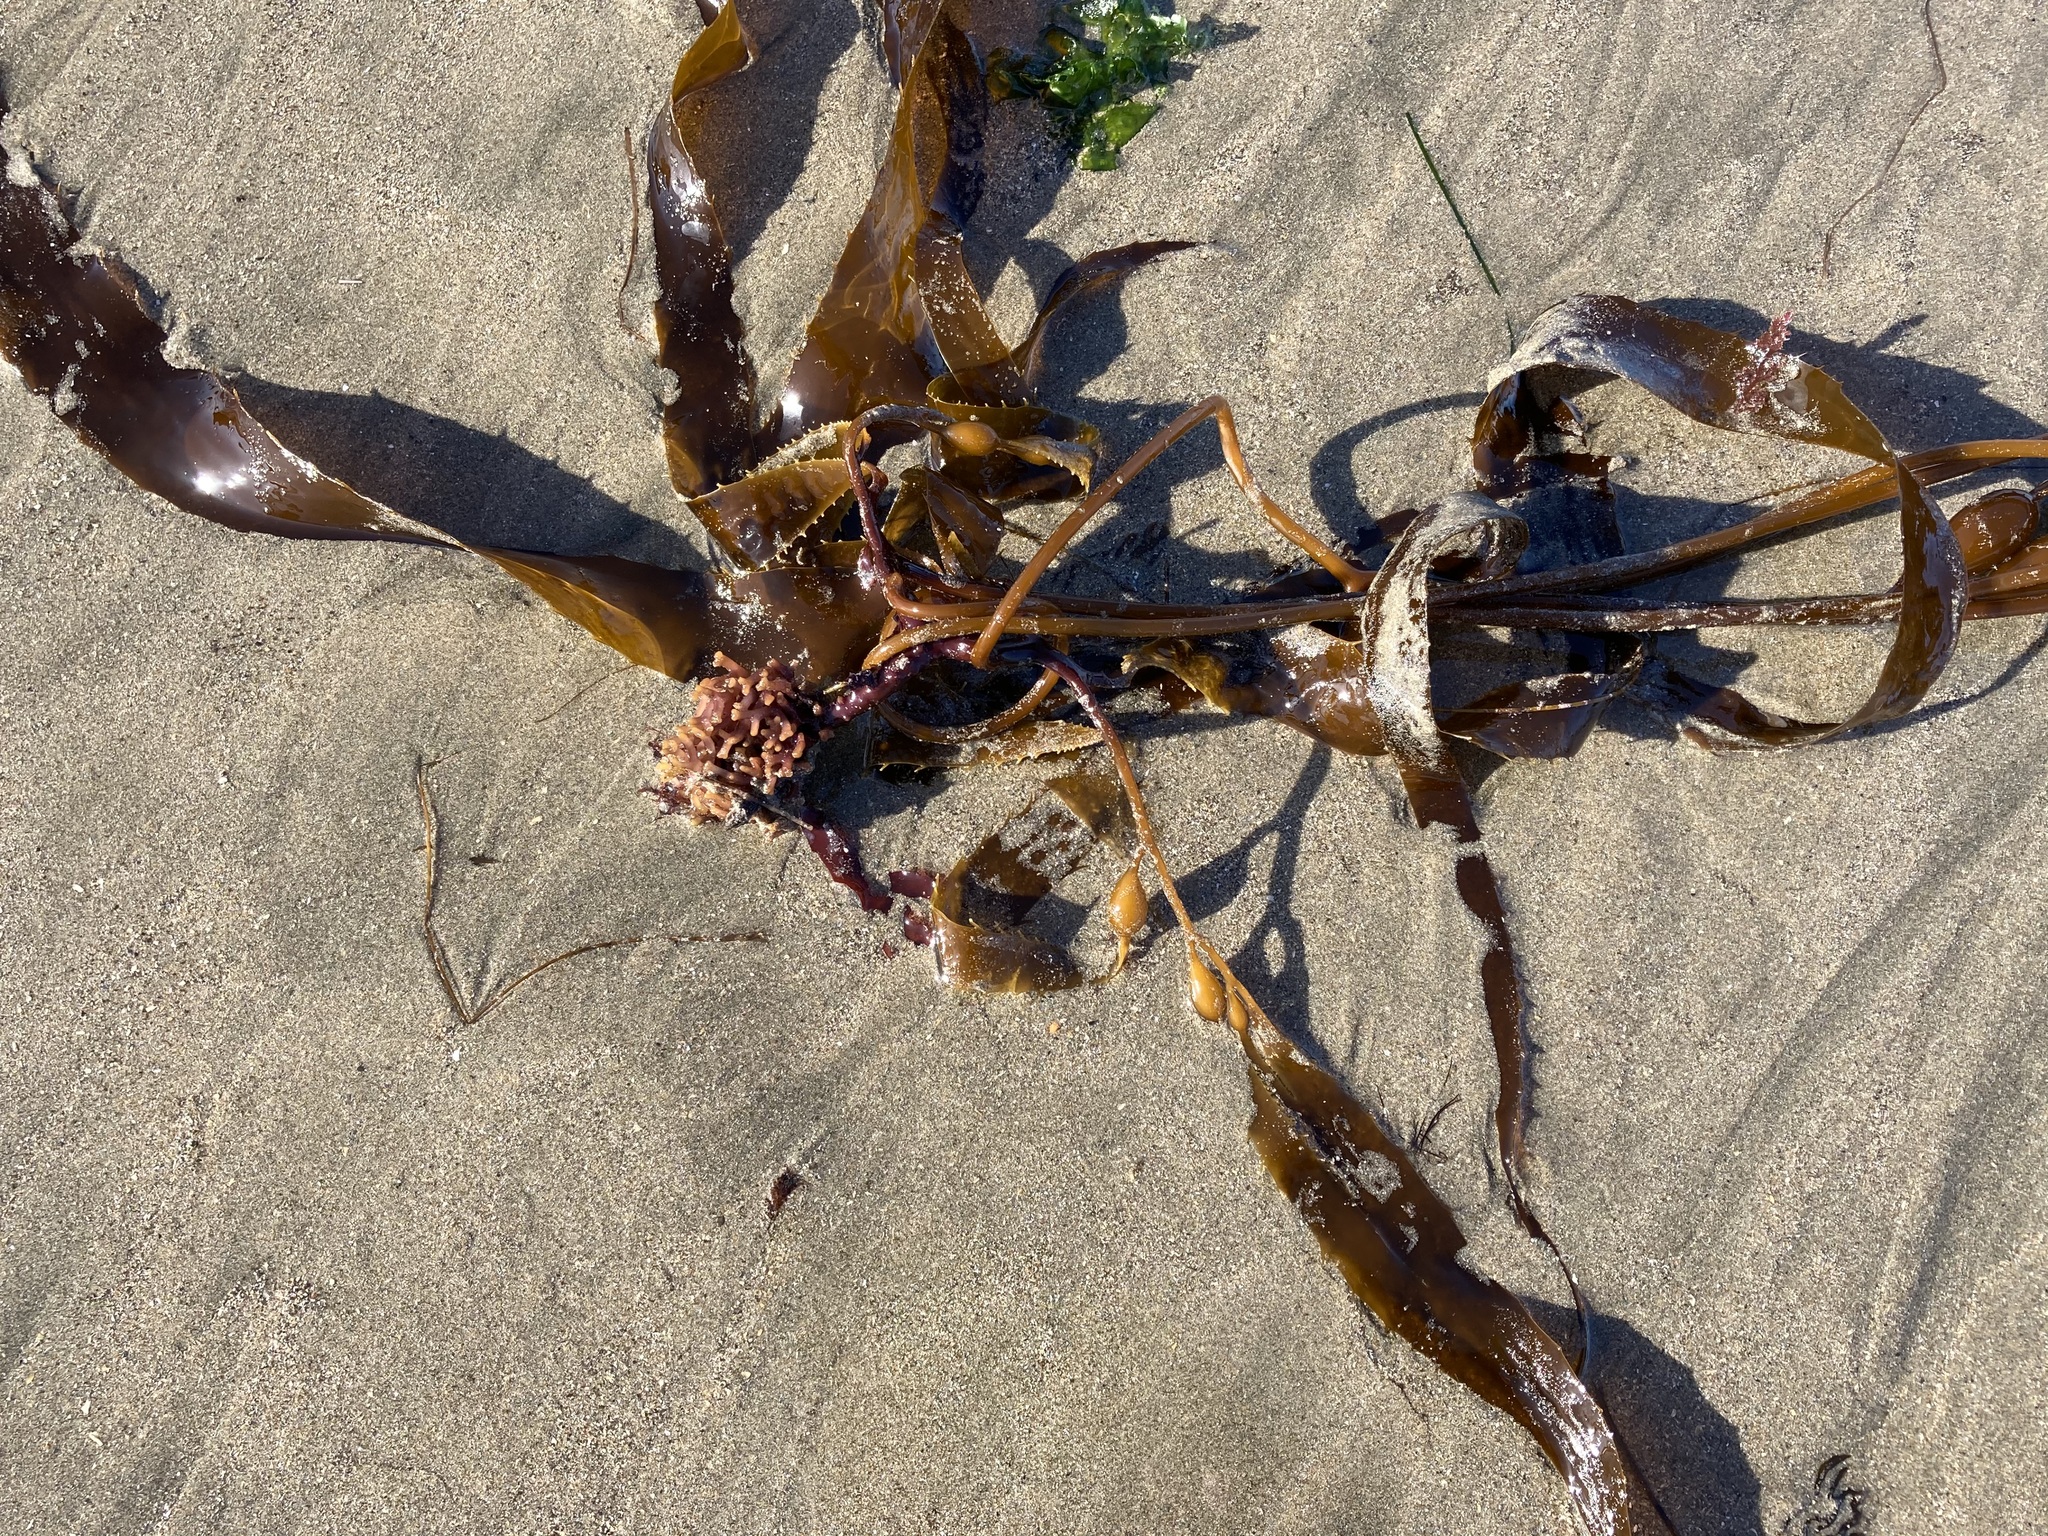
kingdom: Chromista
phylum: Ochrophyta
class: Phaeophyceae
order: Laminariales
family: Laminariaceae
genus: Macrocystis
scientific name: Macrocystis pyrifera
